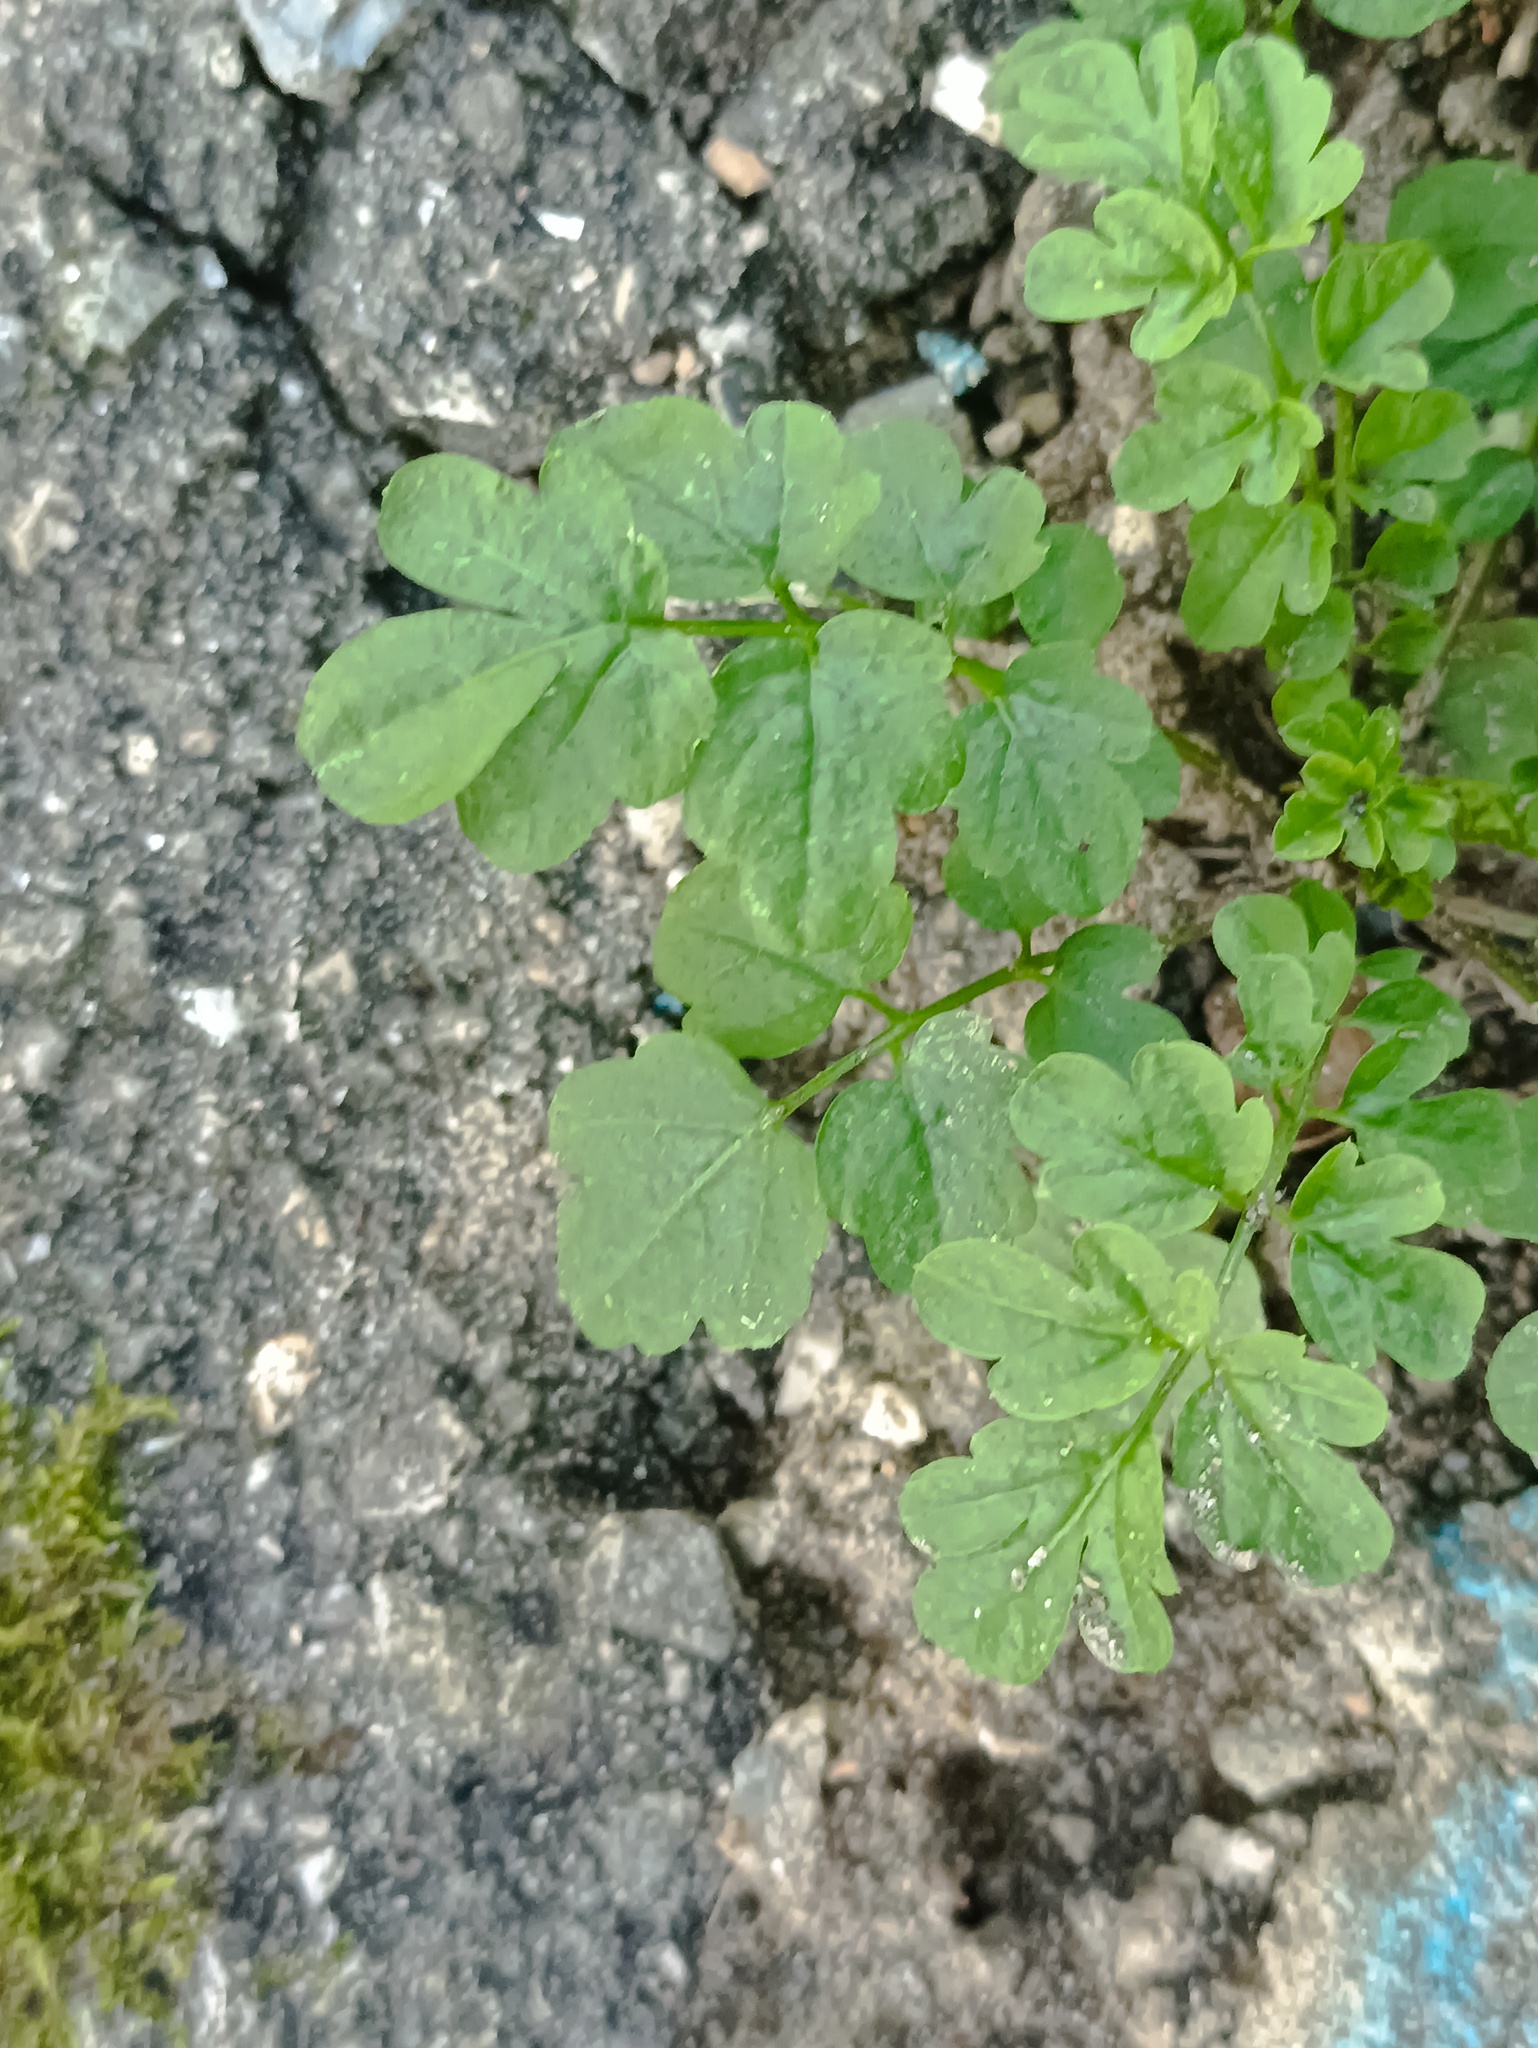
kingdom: Plantae
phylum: Tracheophyta
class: Magnoliopsida
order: Brassicales
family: Brassicaceae
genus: Cardamine
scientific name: Cardamine impatiens
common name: Narrow-leaved bitter-cress
